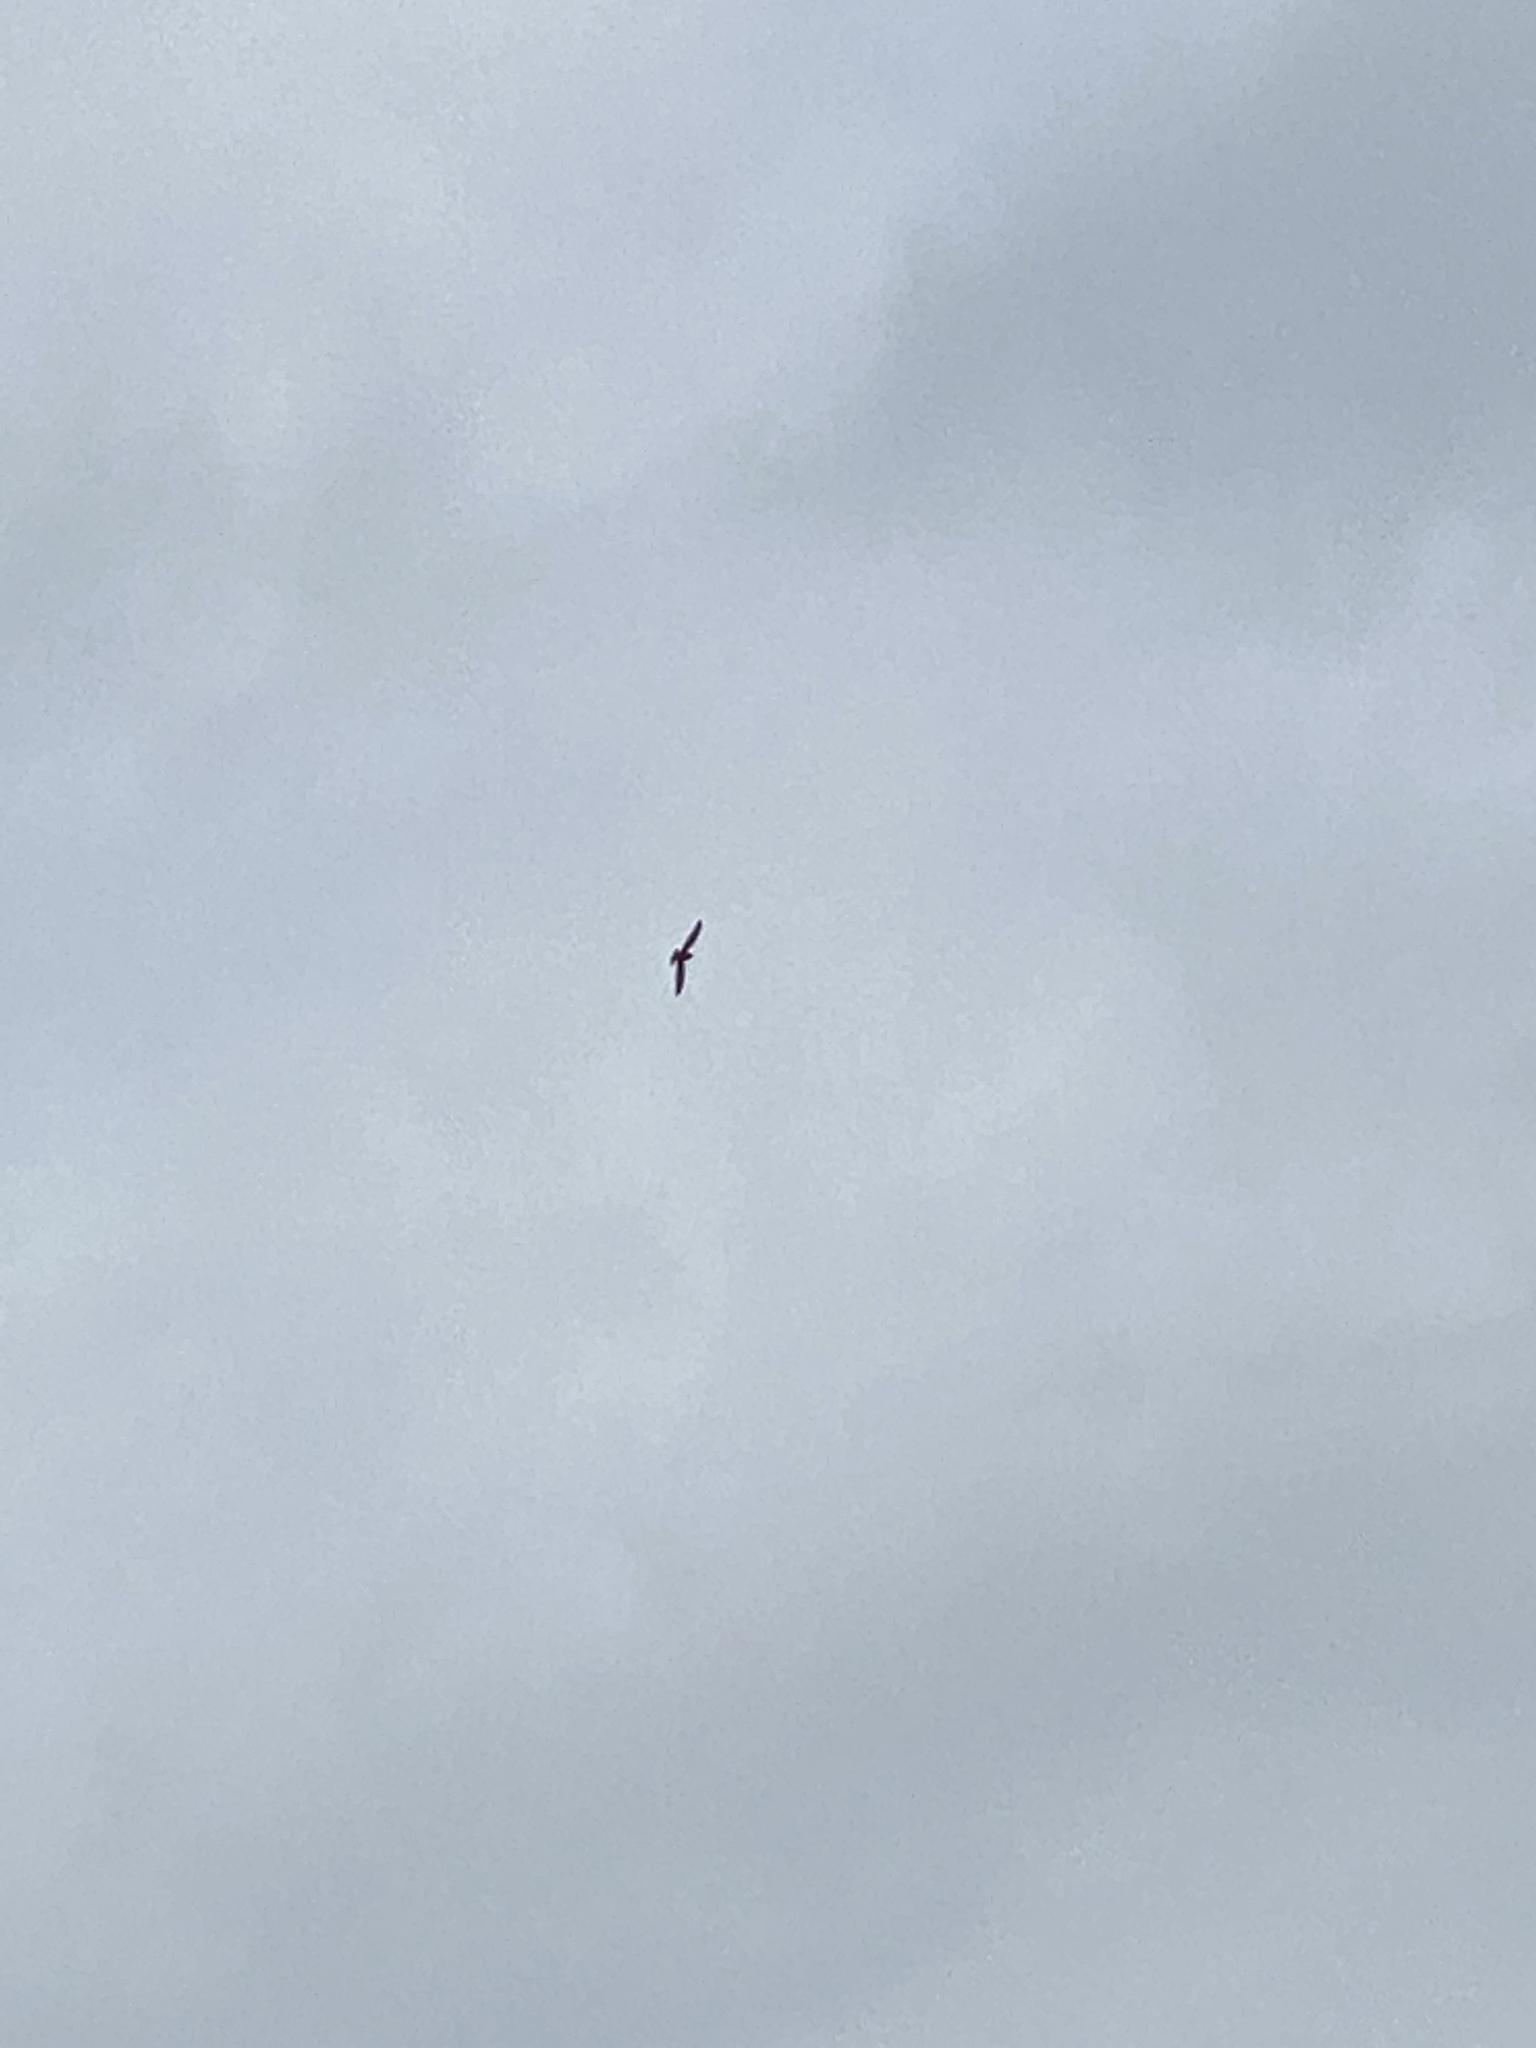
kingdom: Animalia
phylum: Chordata
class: Aves
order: Apodiformes
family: Apodidae
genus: Chaetura
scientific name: Chaetura vauxi
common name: Vaux's swift
